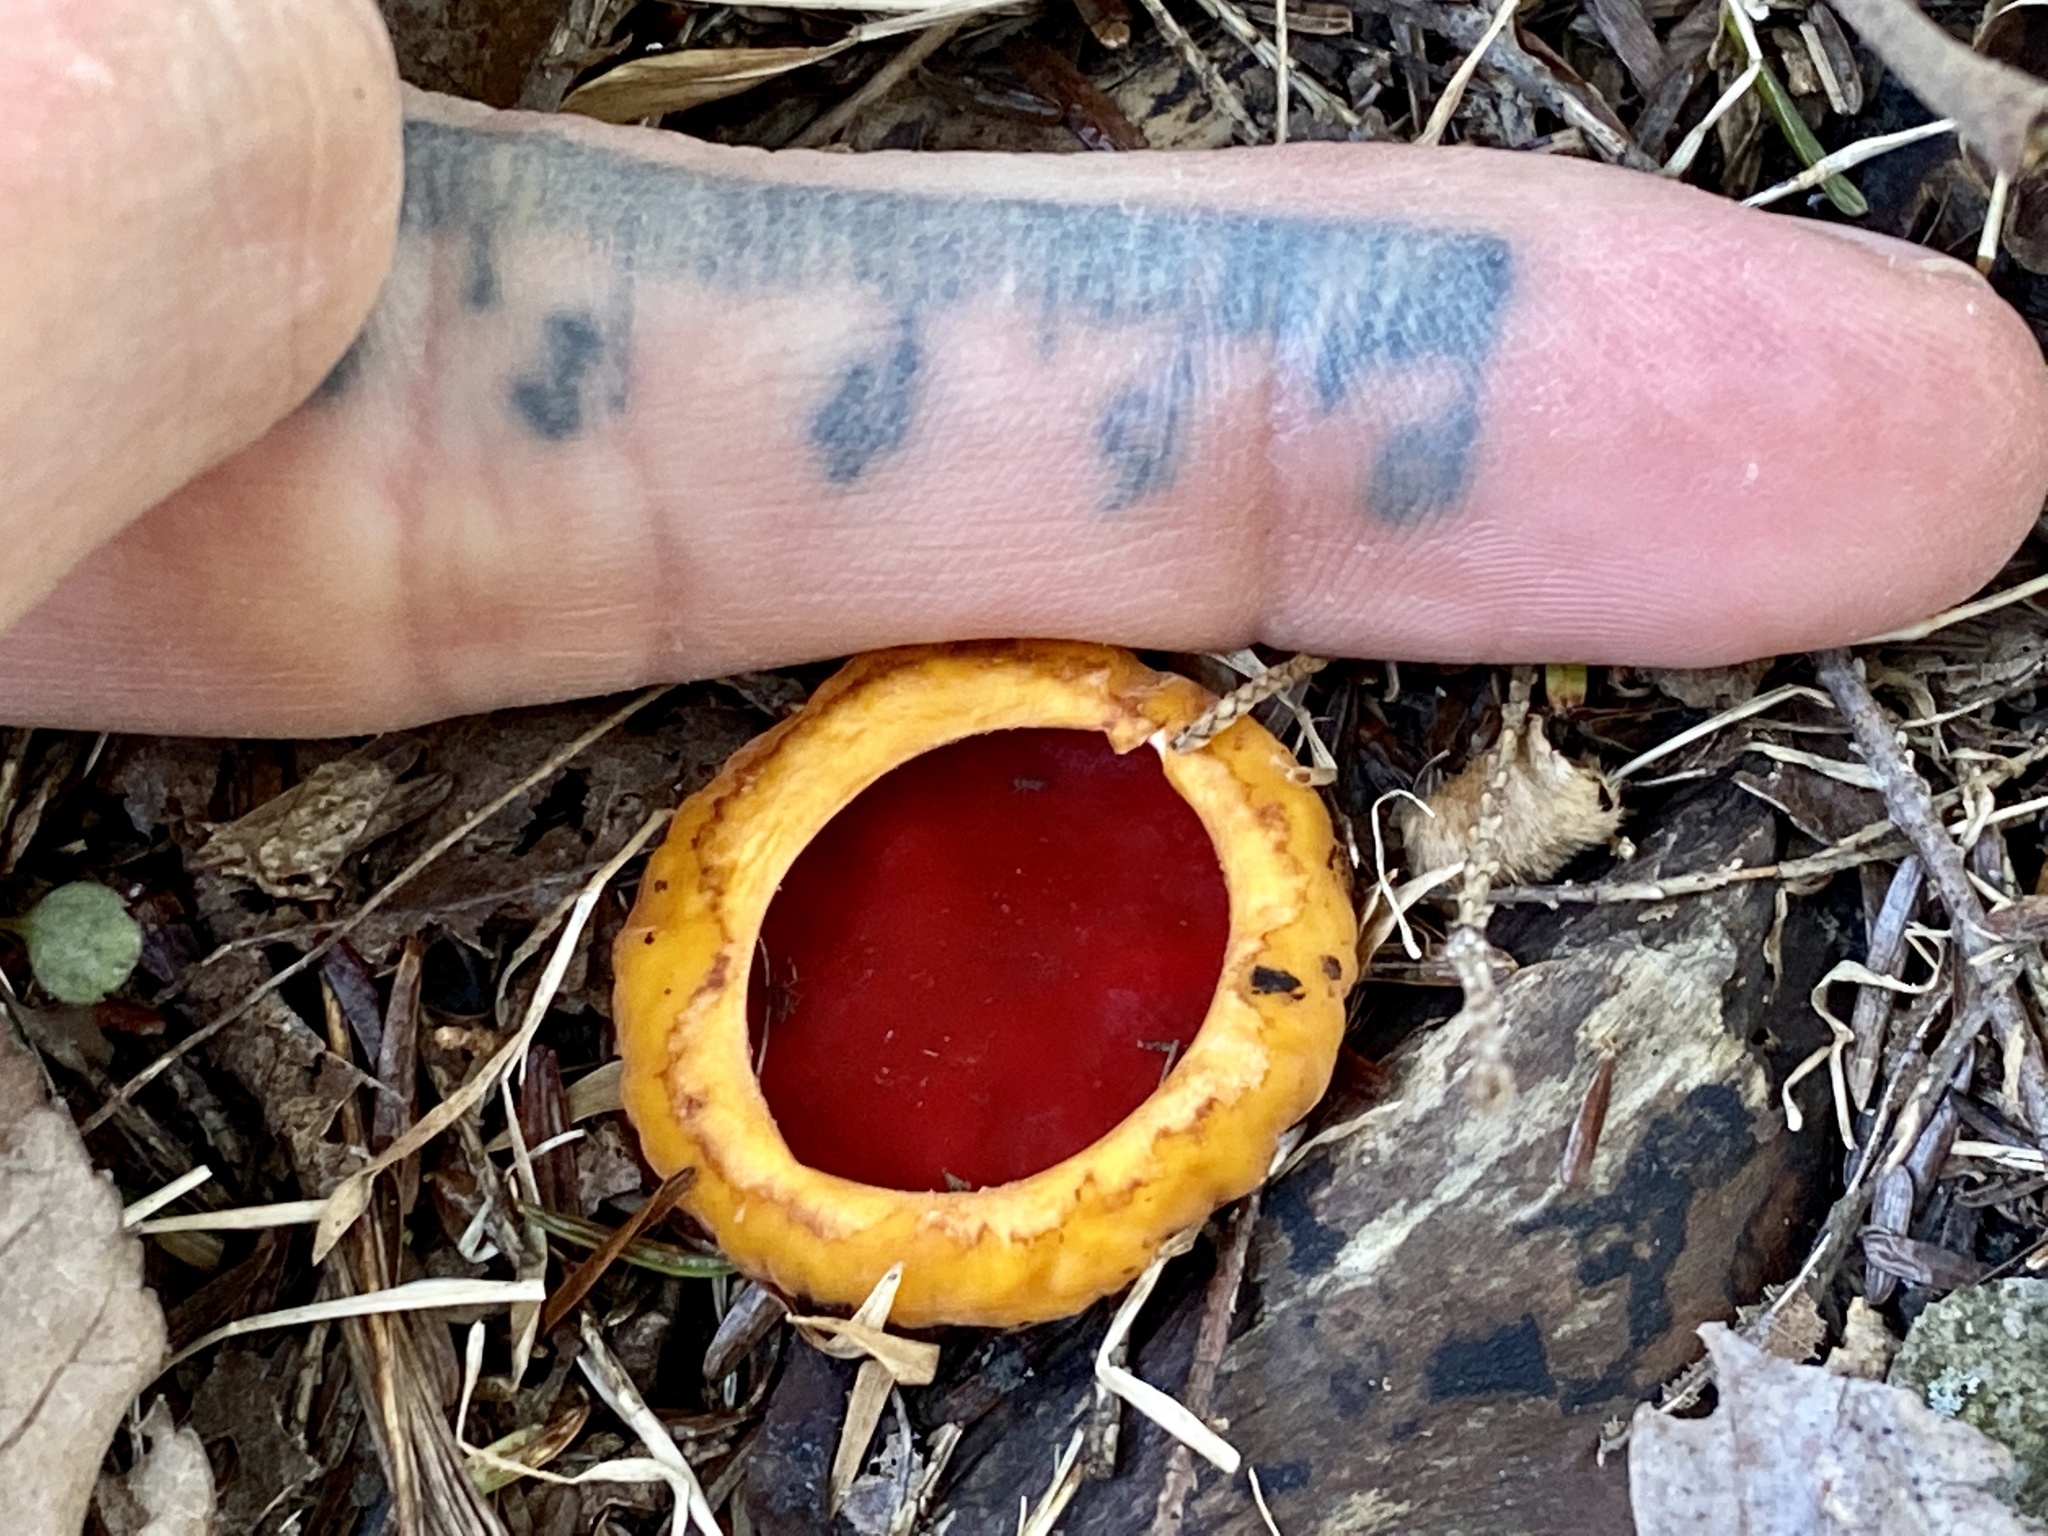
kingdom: Fungi
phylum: Ascomycota
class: Pezizomycetes
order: Pezizales
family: Sarcoscyphaceae
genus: Sarcoscypha
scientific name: Sarcoscypha
